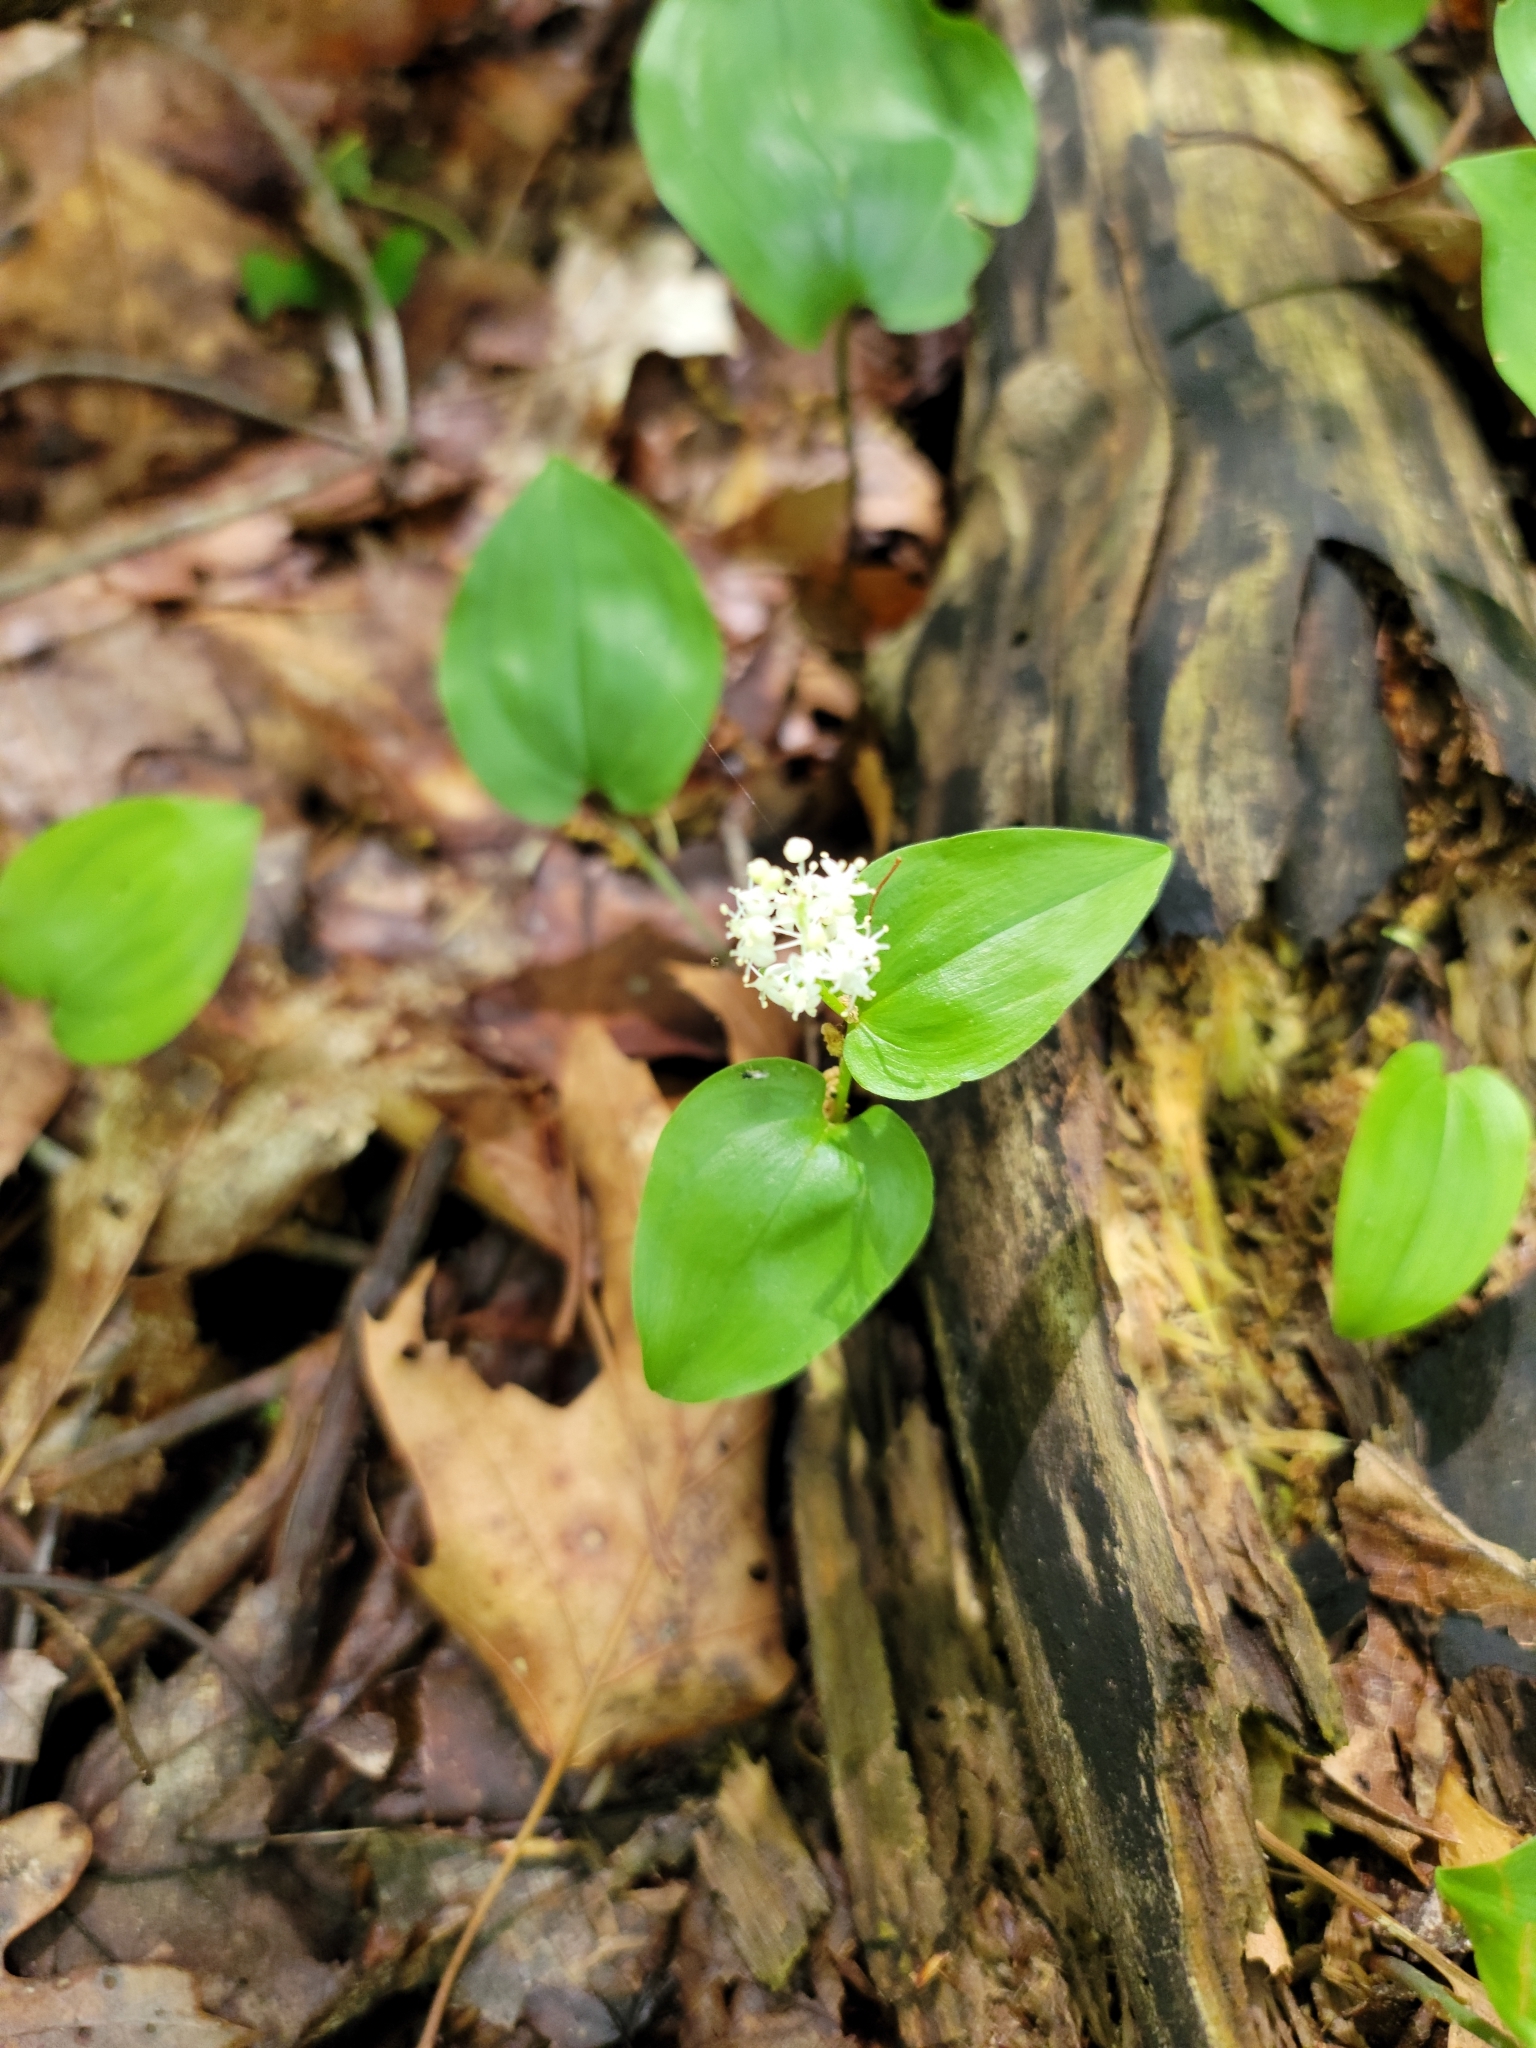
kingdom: Plantae
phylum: Tracheophyta
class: Liliopsida
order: Asparagales
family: Asparagaceae
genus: Maianthemum
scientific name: Maianthemum canadense
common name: False lily-of-the-valley
